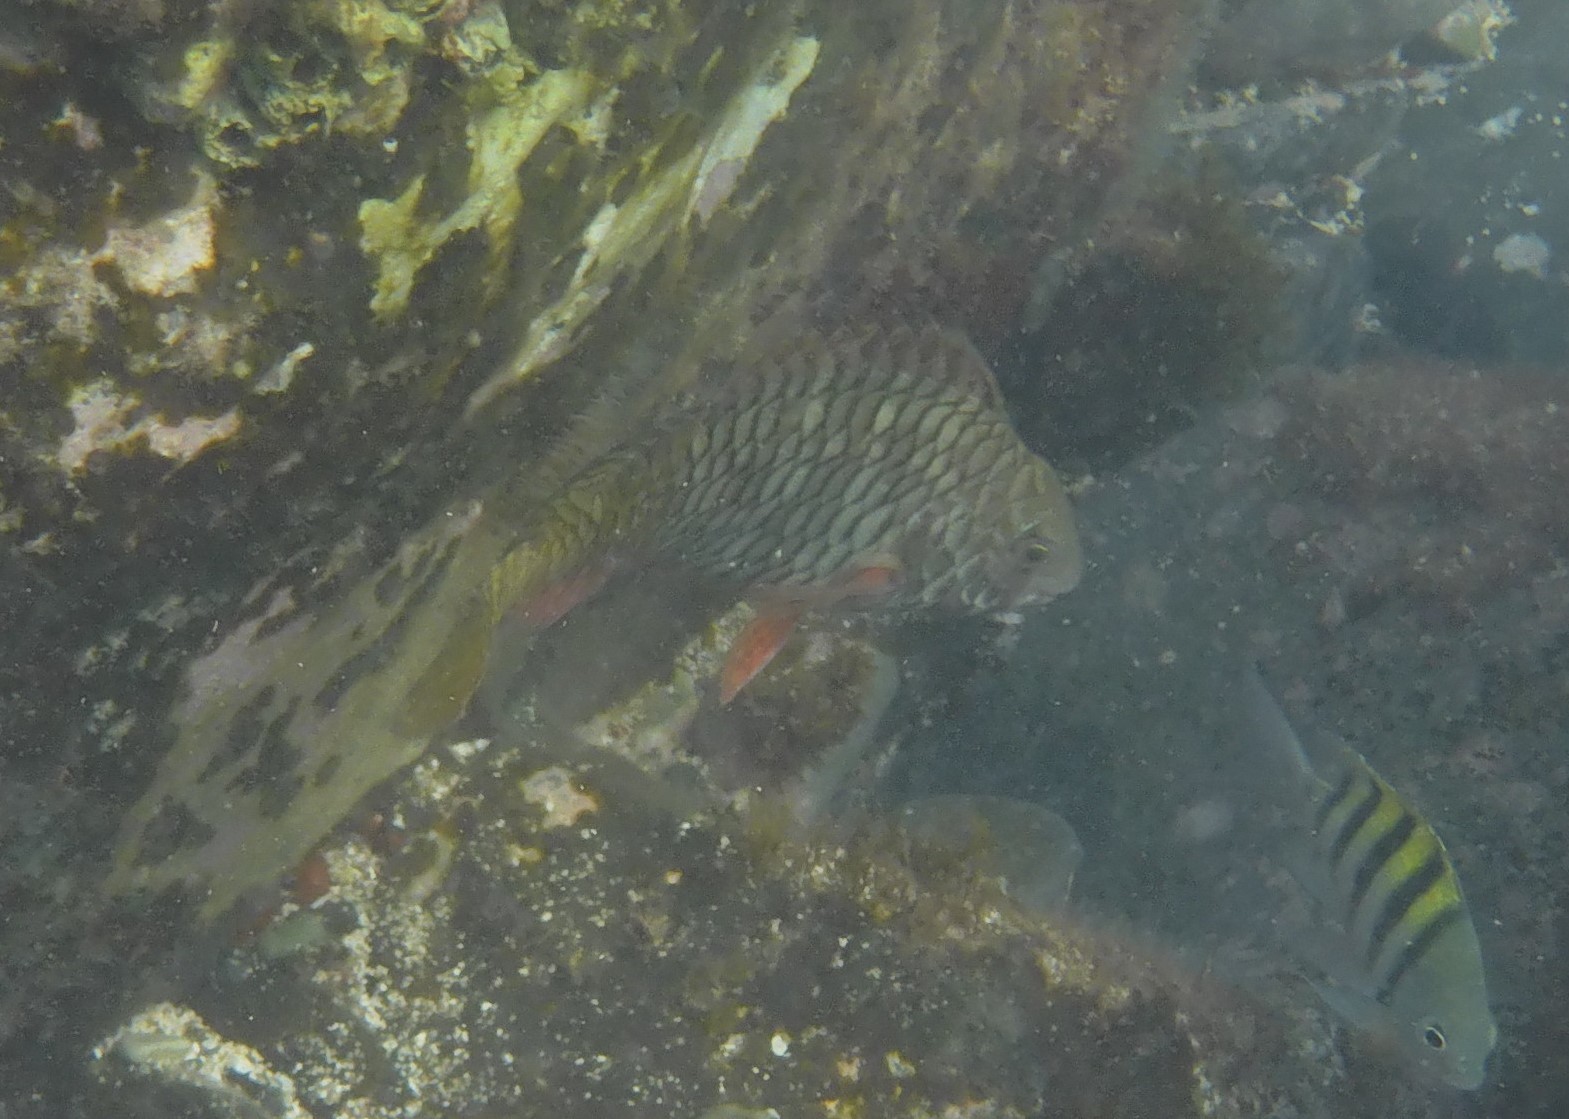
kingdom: Animalia
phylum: Chordata
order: Perciformes
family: Scaridae
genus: Sparisoma
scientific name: Sparisoma rubripinne
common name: Redfin parrotfish
